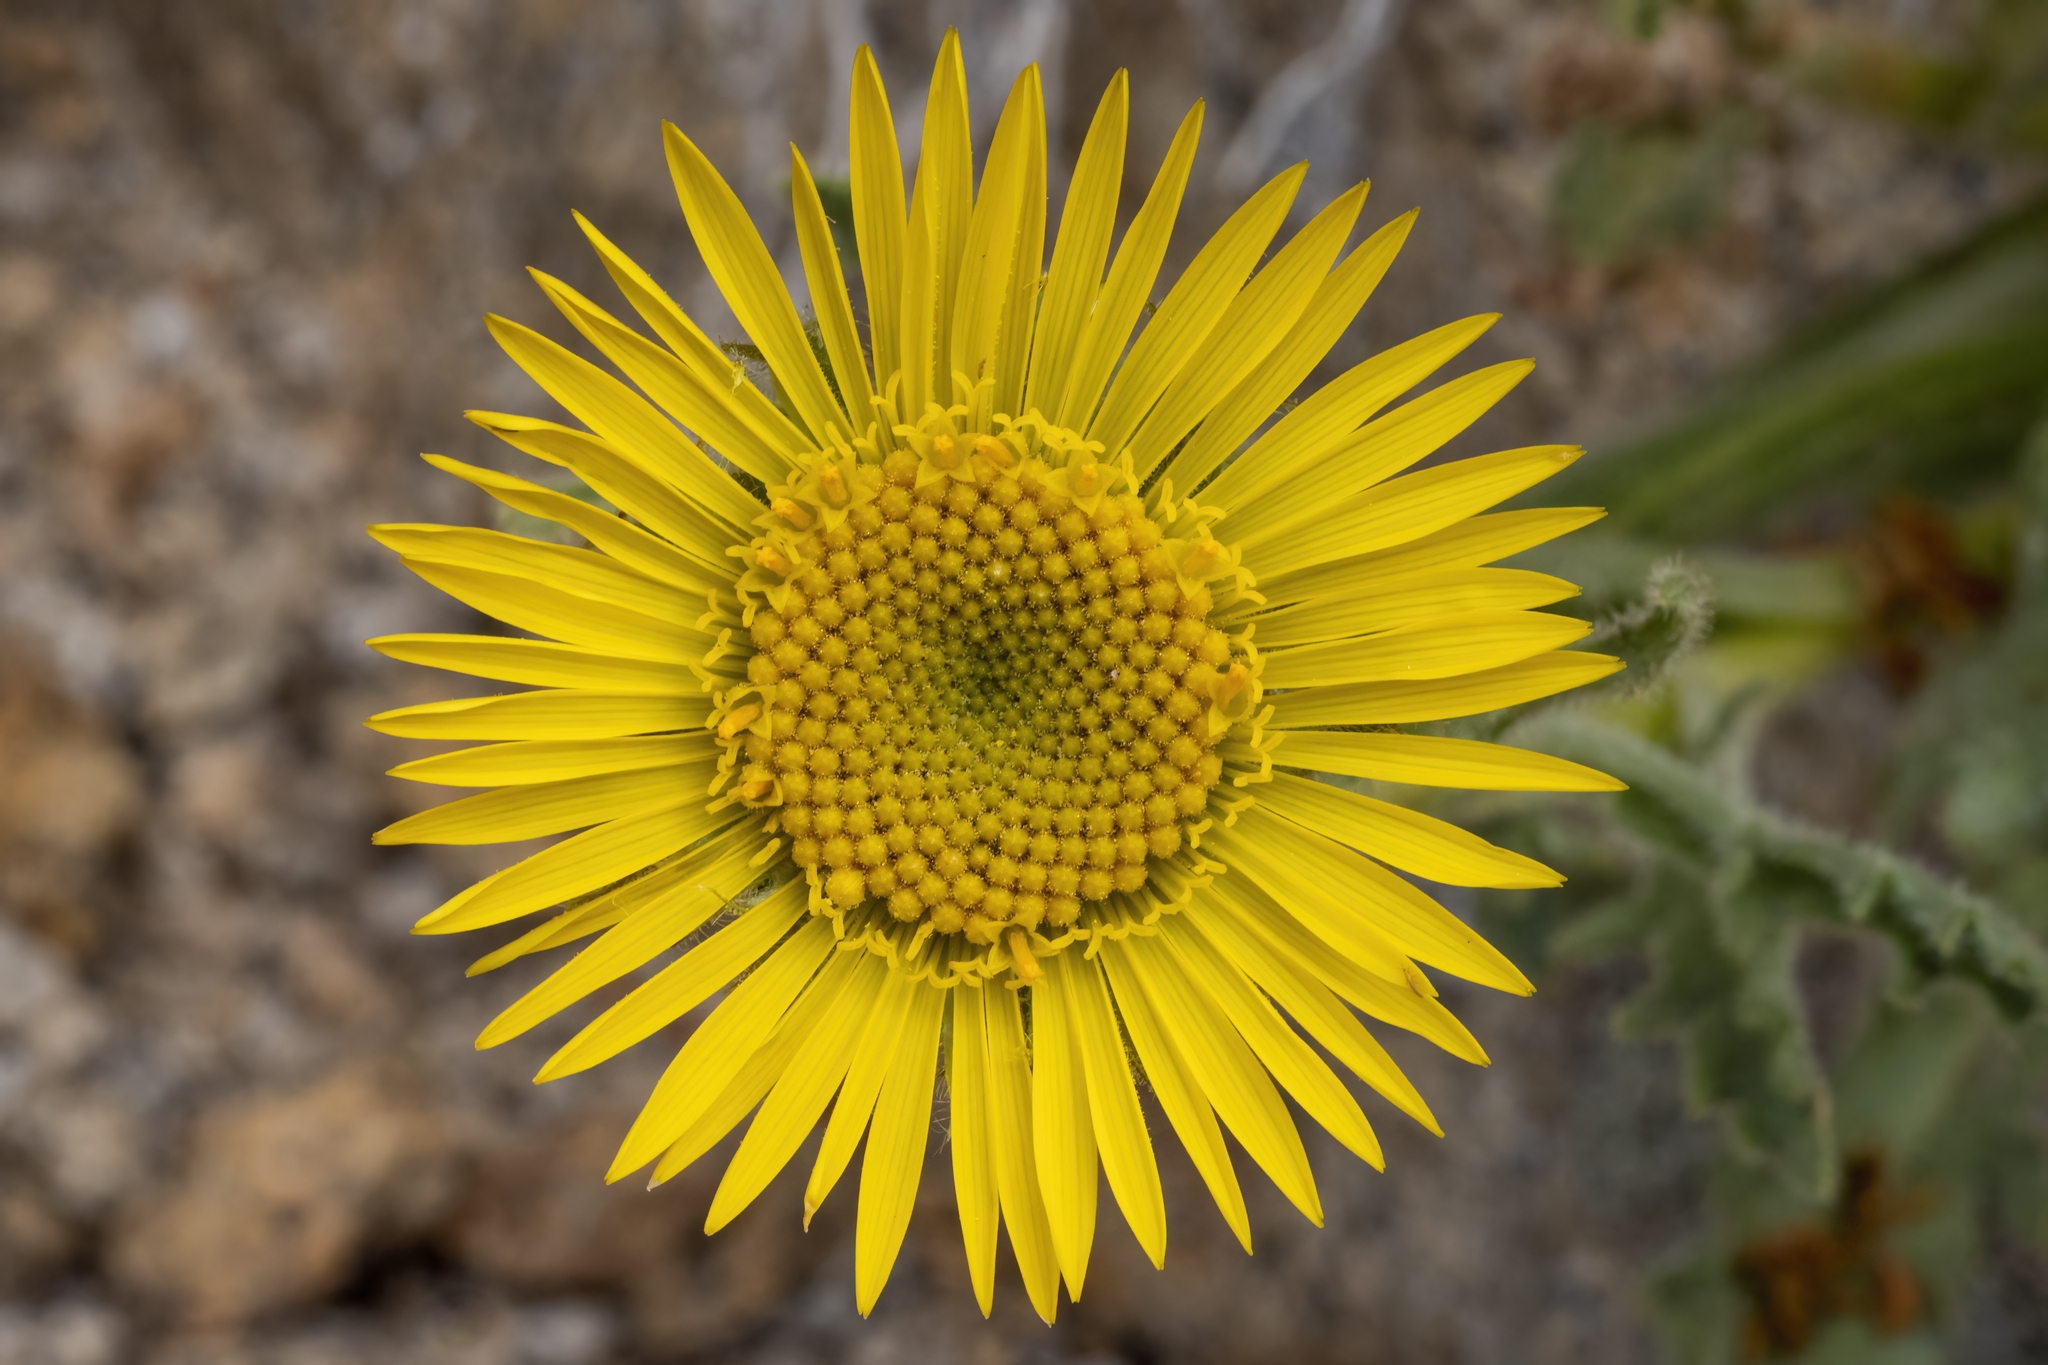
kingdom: Plantae
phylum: Tracheophyta
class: Magnoliopsida
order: Asterales
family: Asteraceae
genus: Hulsea
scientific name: Hulsea algida
